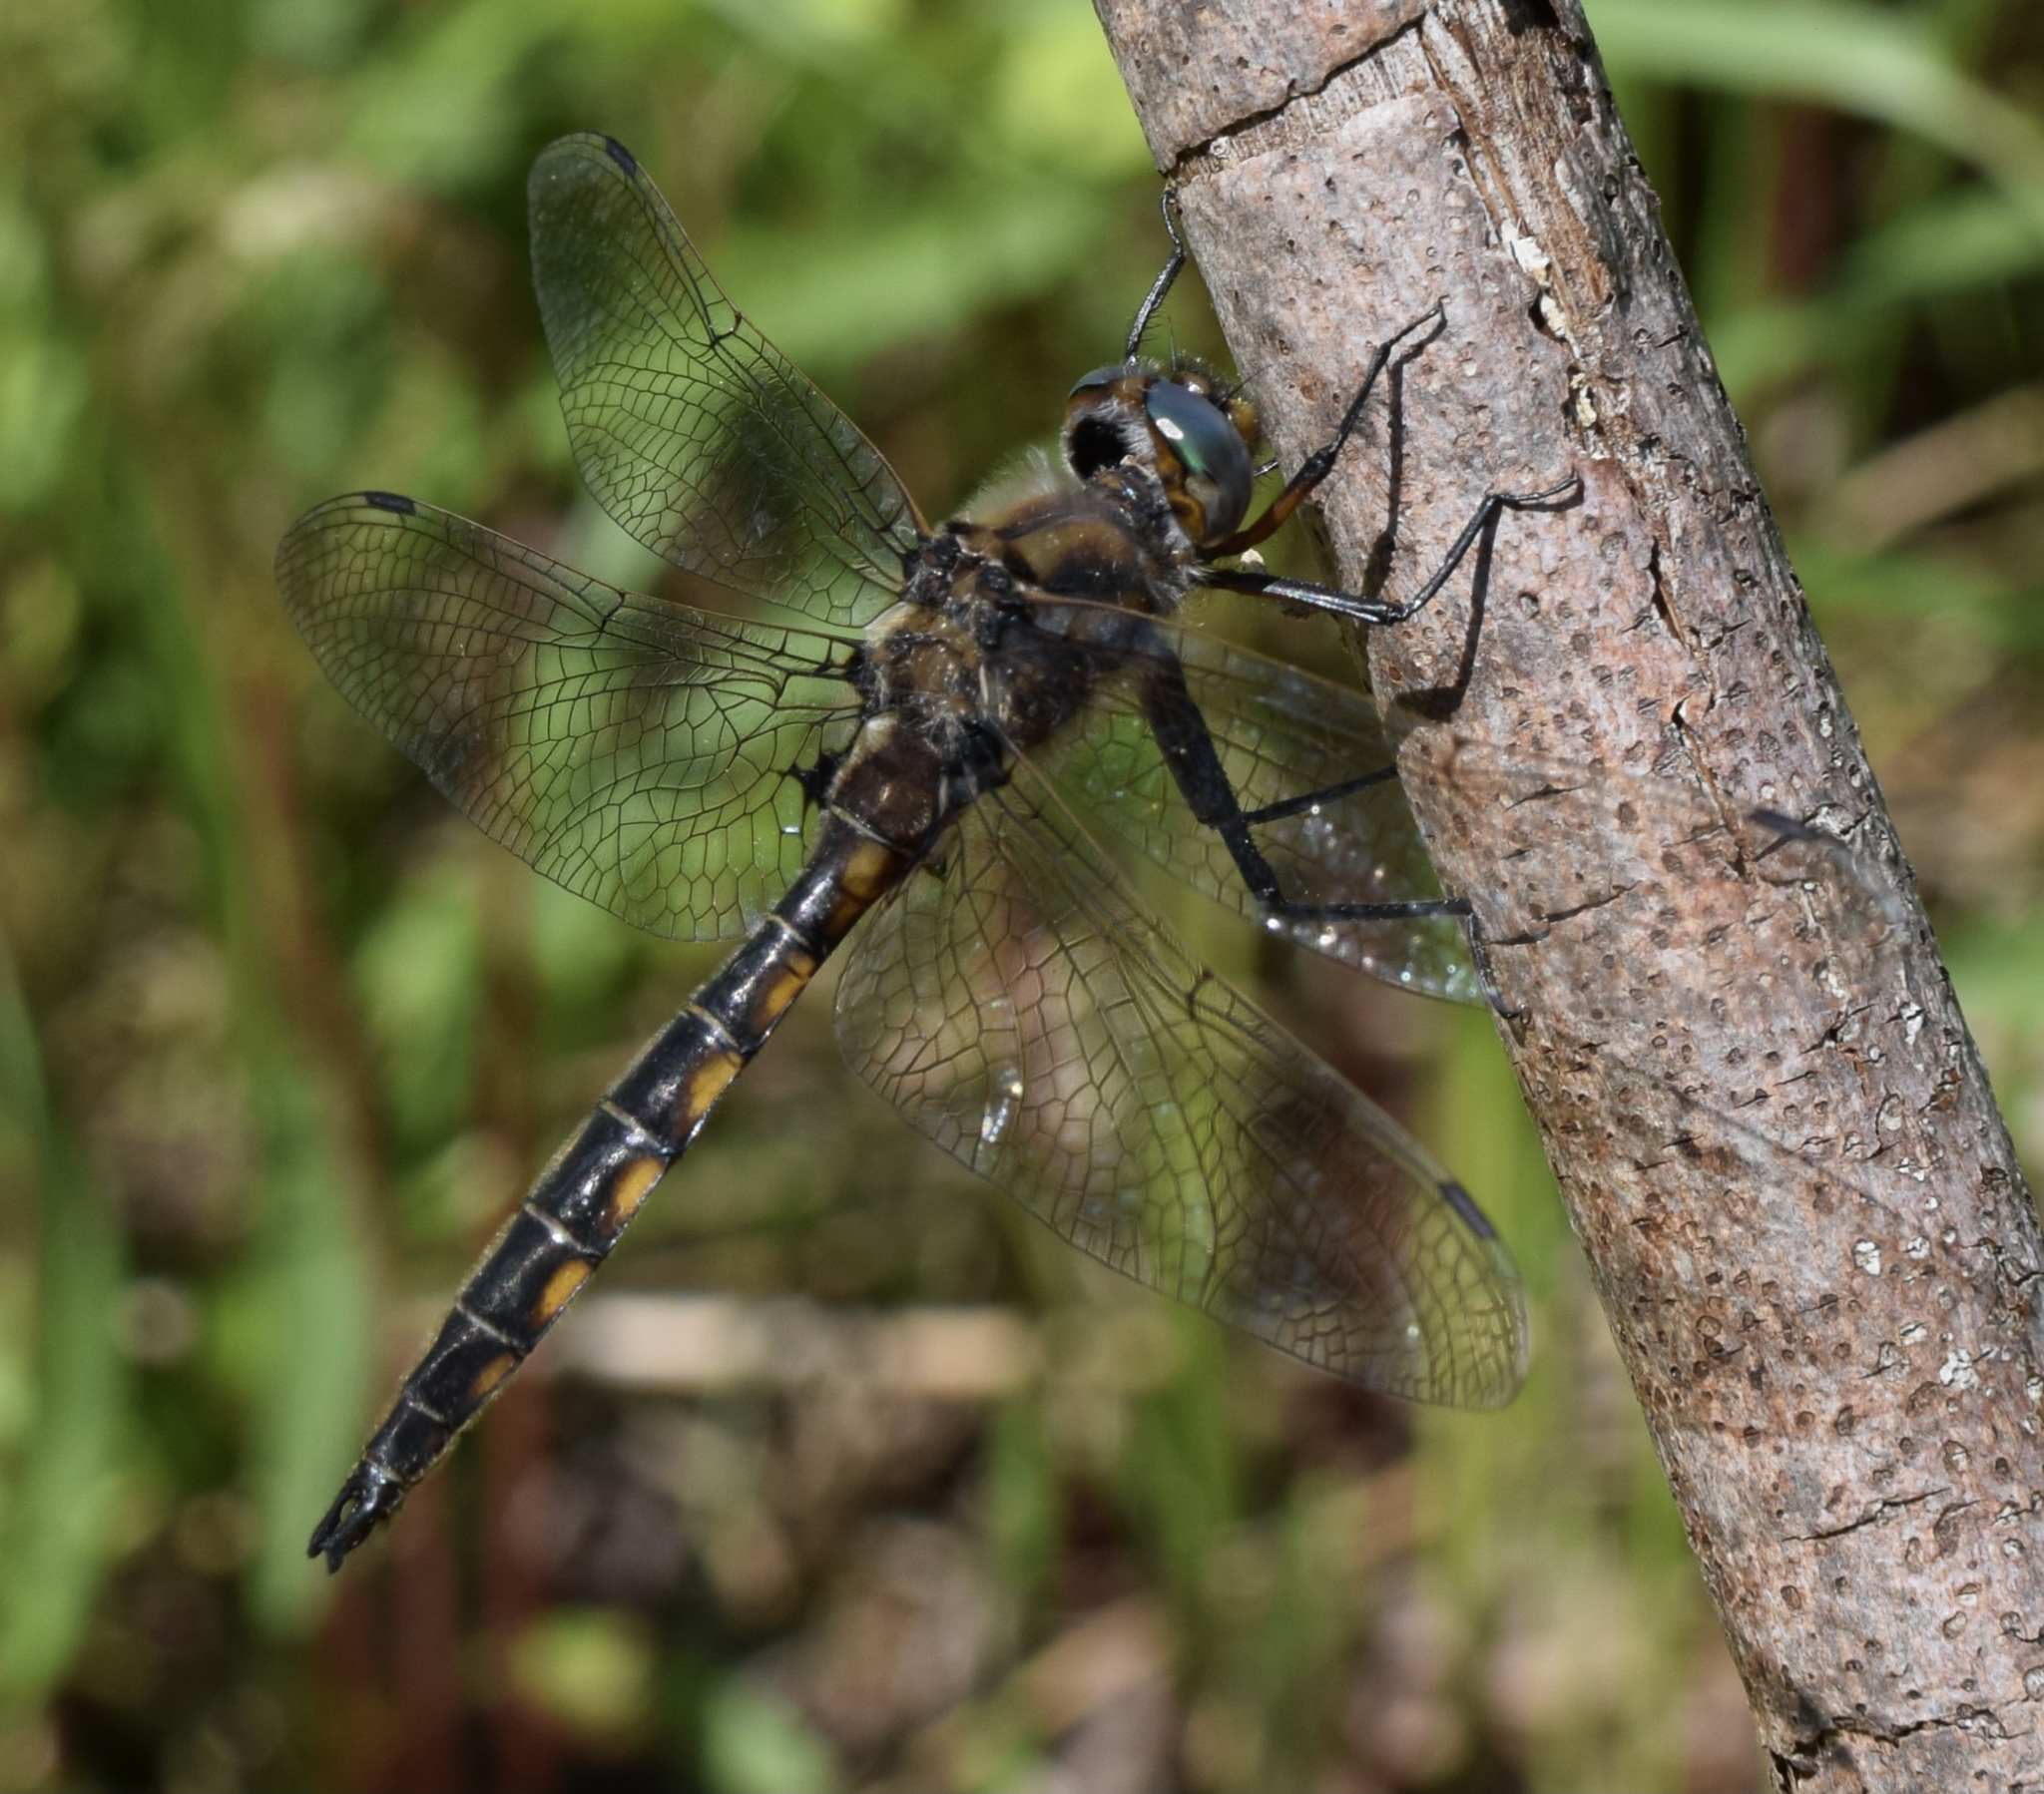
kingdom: Animalia
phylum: Arthropoda
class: Insecta
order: Odonata
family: Corduliidae
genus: Epitheca
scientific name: Epitheca canis
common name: Beaverpond baskettail
